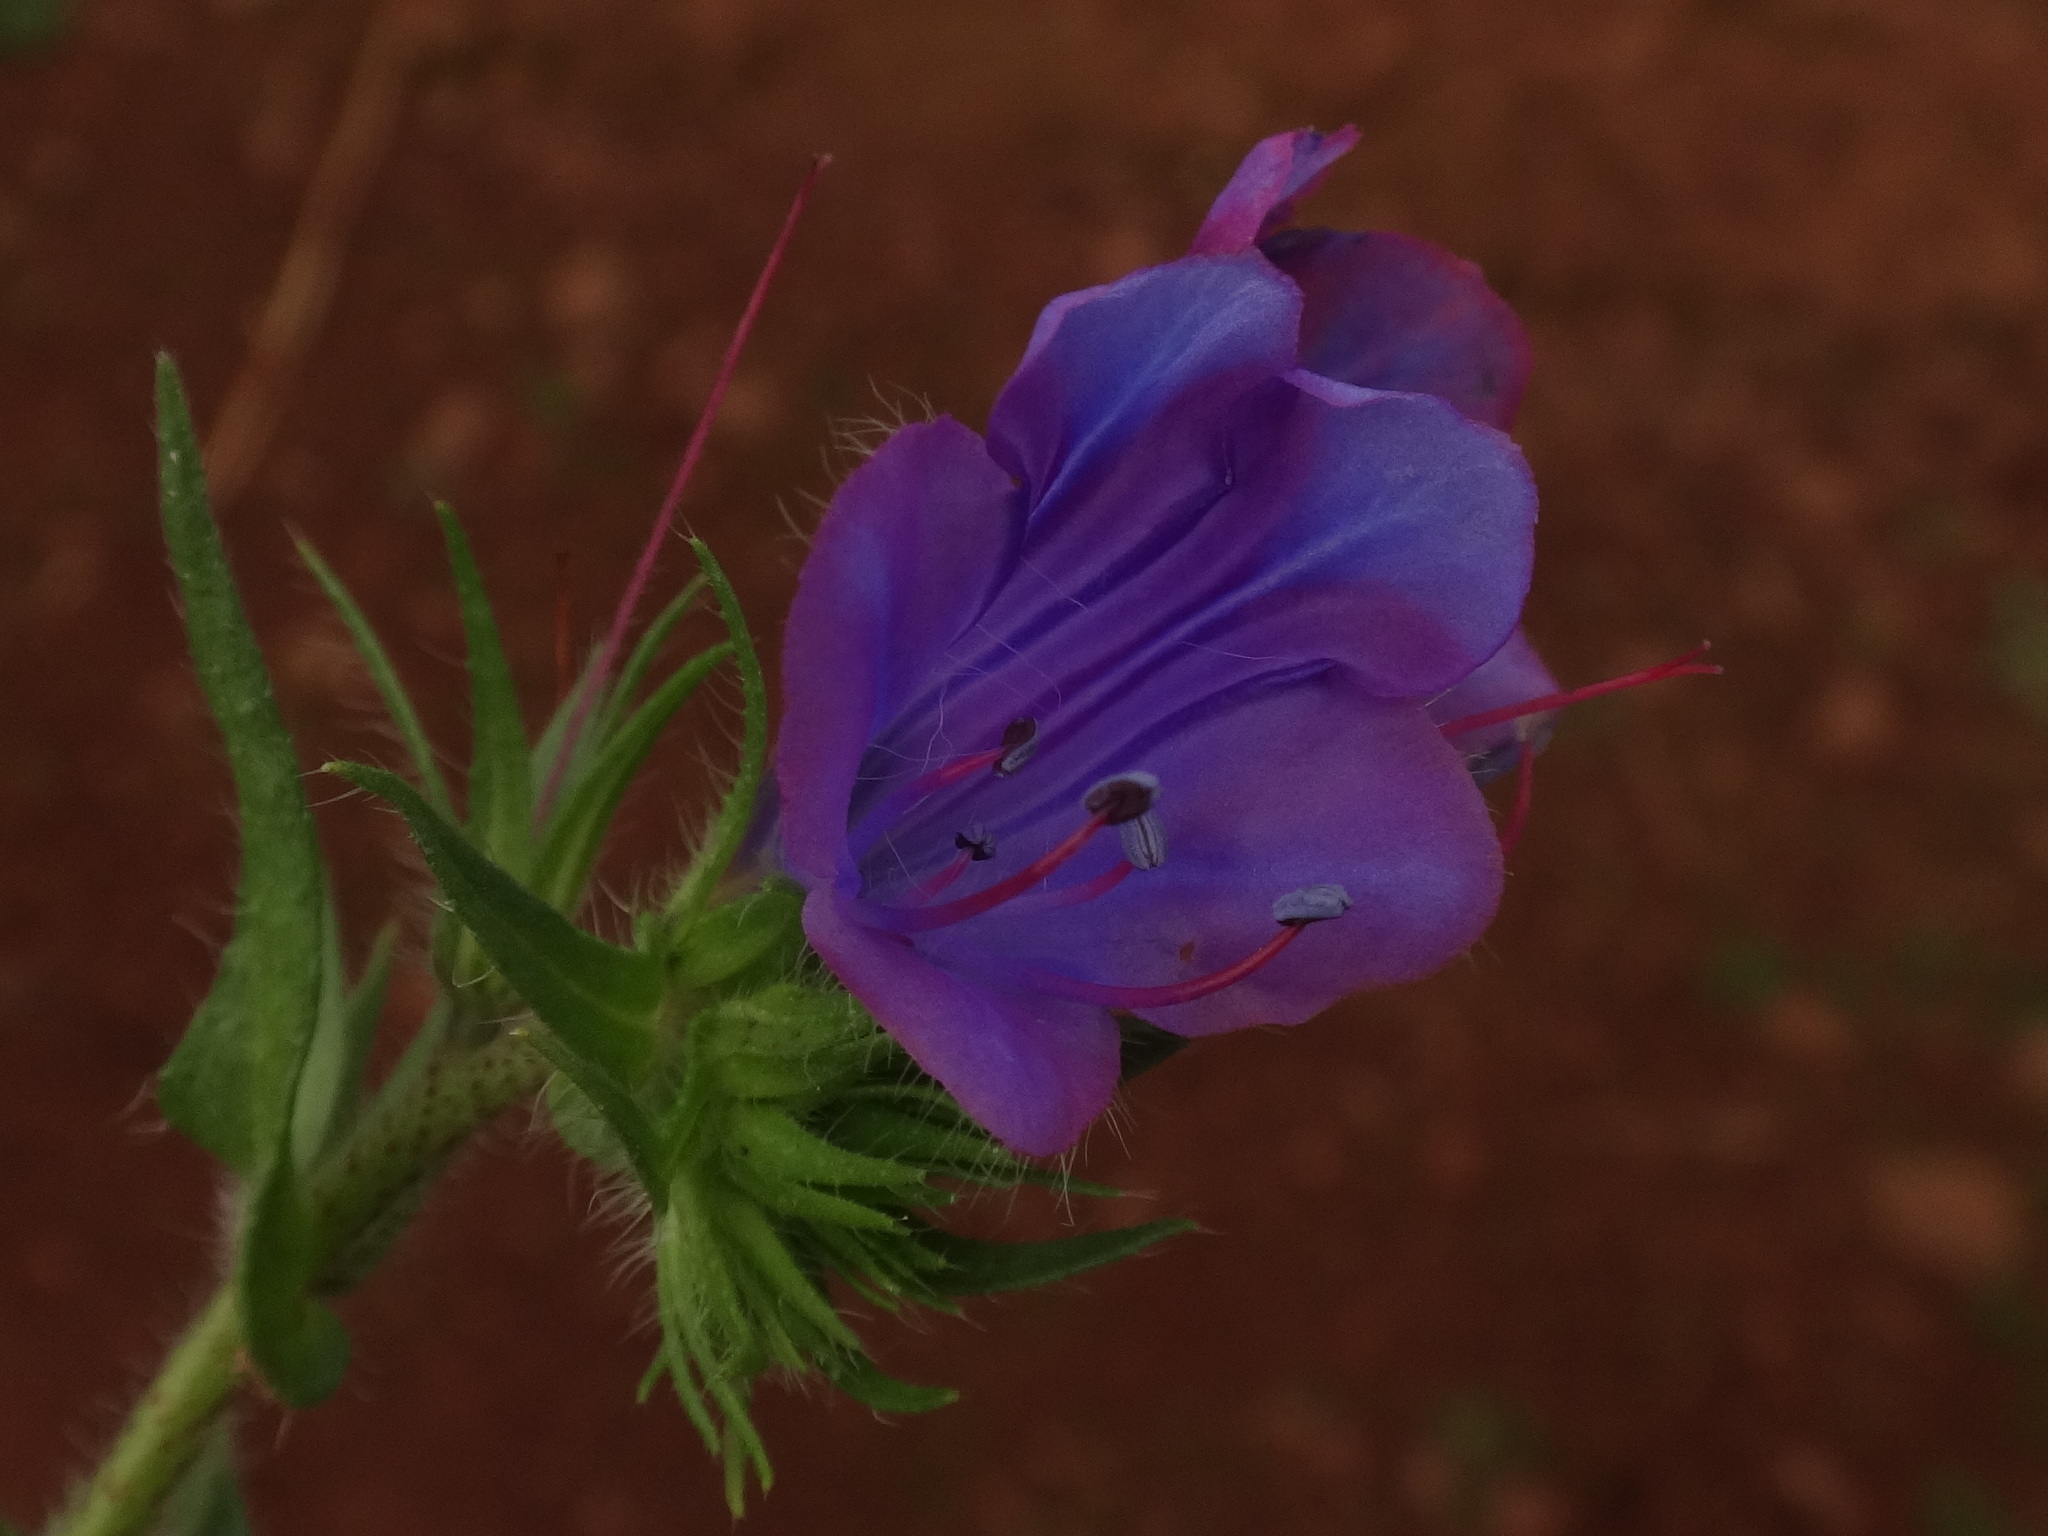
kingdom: Plantae
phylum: Tracheophyta
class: Magnoliopsida
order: Boraginales
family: Boraginaceae
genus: Echium
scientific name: Echium plantagineum
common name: Purple viper's-bugloss
